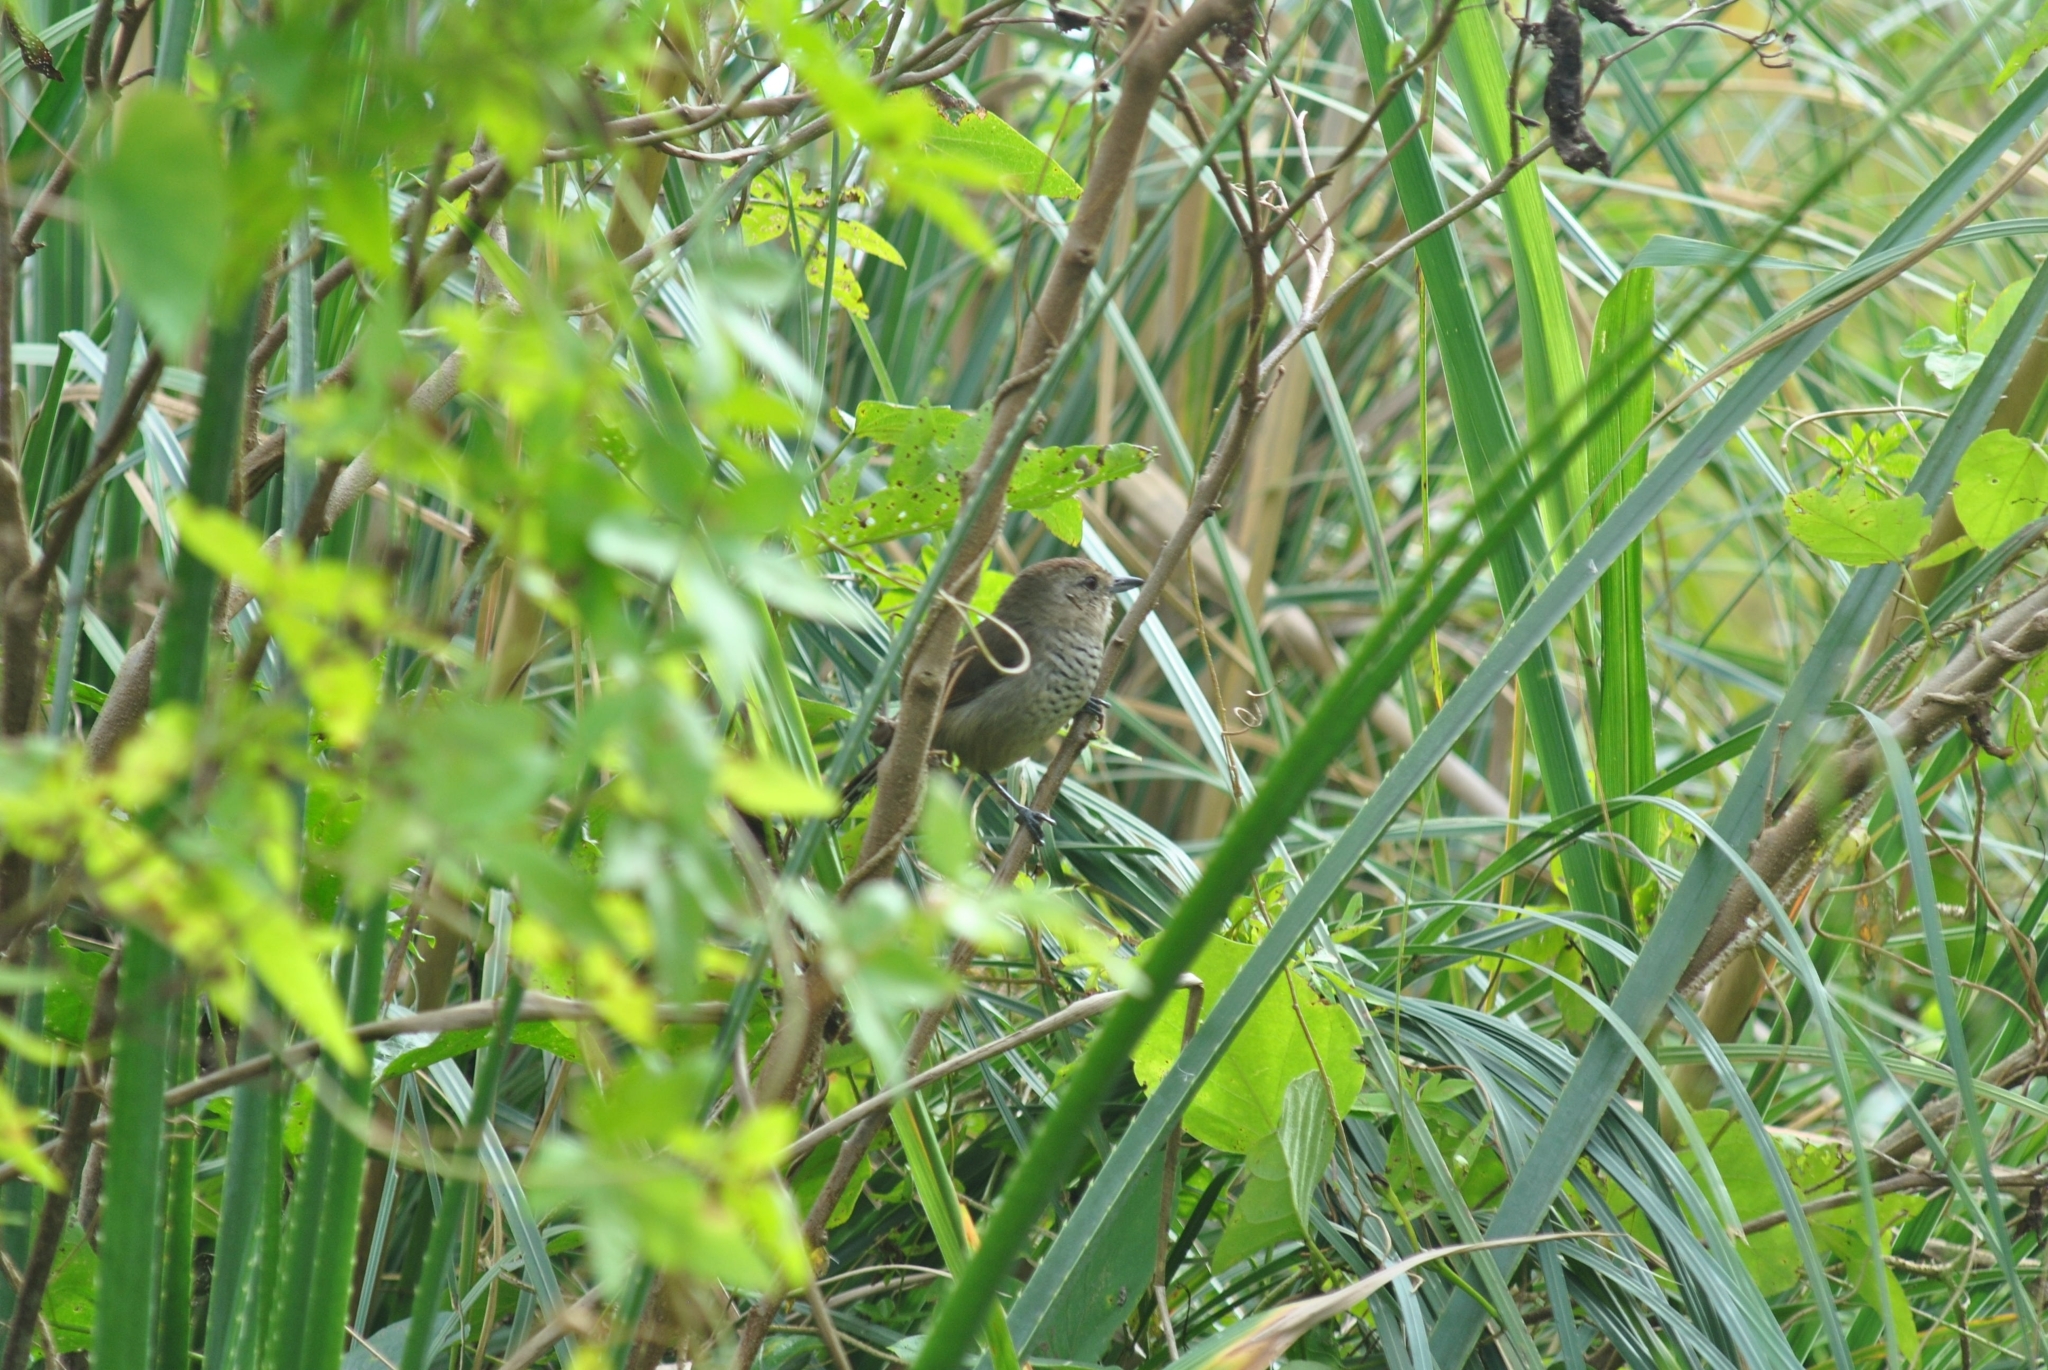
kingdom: Animalia
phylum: Chordata
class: Aves
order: Passeriformes
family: Thamnophilidae
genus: Thamnophilus
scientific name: Thamnophilus ruficapillus
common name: Rufous-capped antshrike
